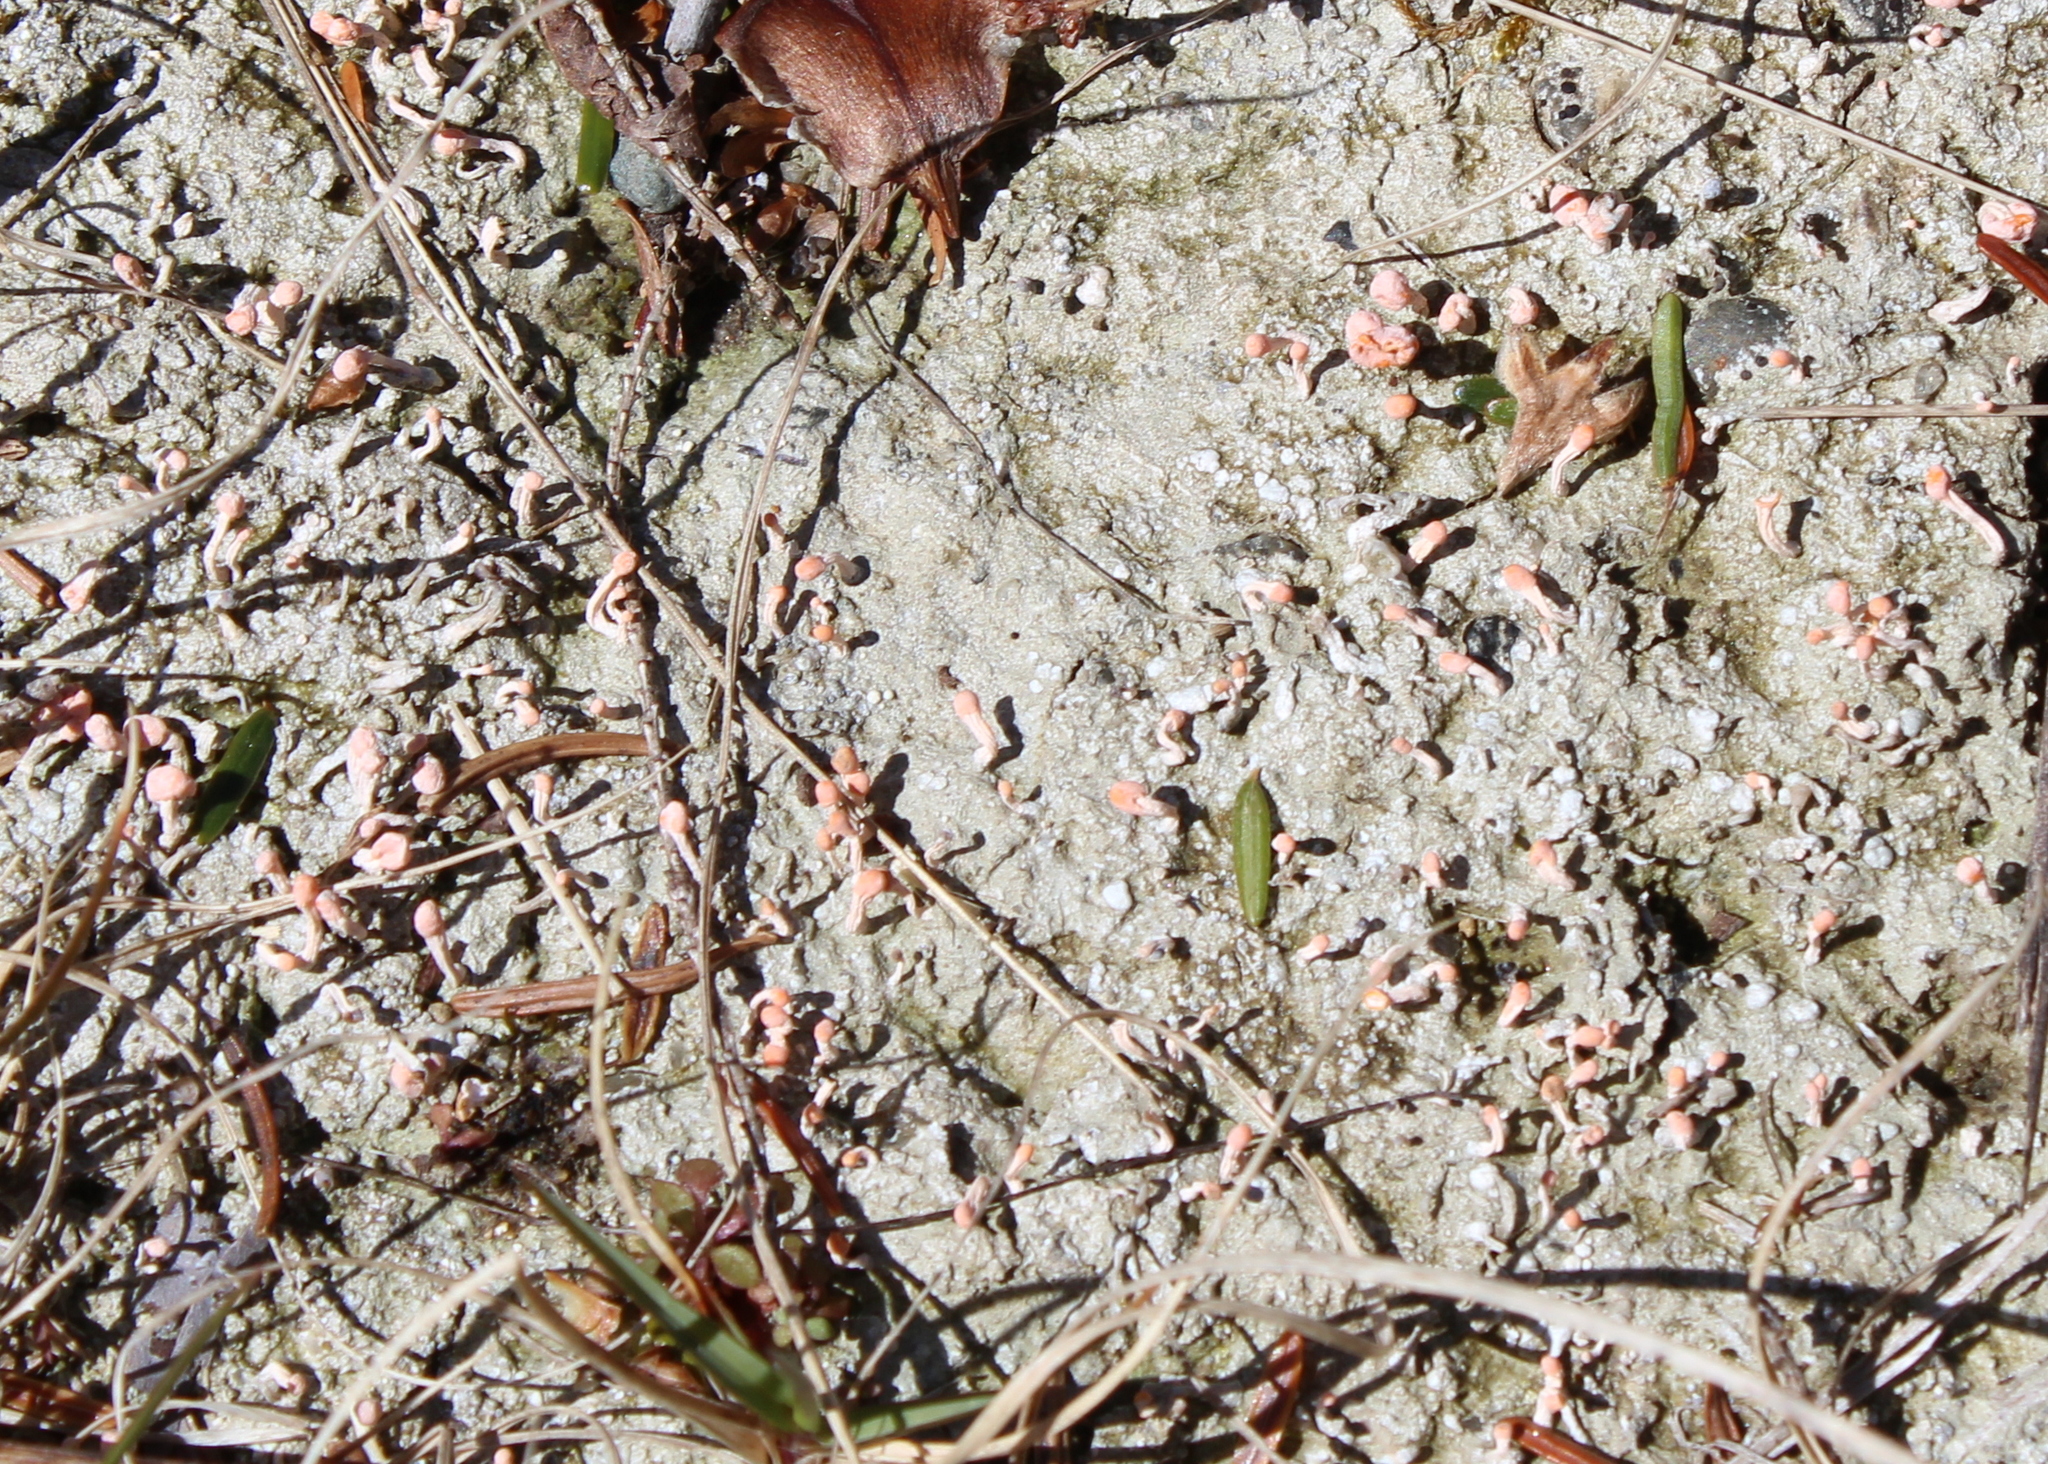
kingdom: Fungi
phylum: Ascomycota
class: Lecanoromycetes
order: Pertusariales
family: Icmadophilaceae
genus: Dibaeis
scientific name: Dibaeis baeomyces
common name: Pink earth lichen
